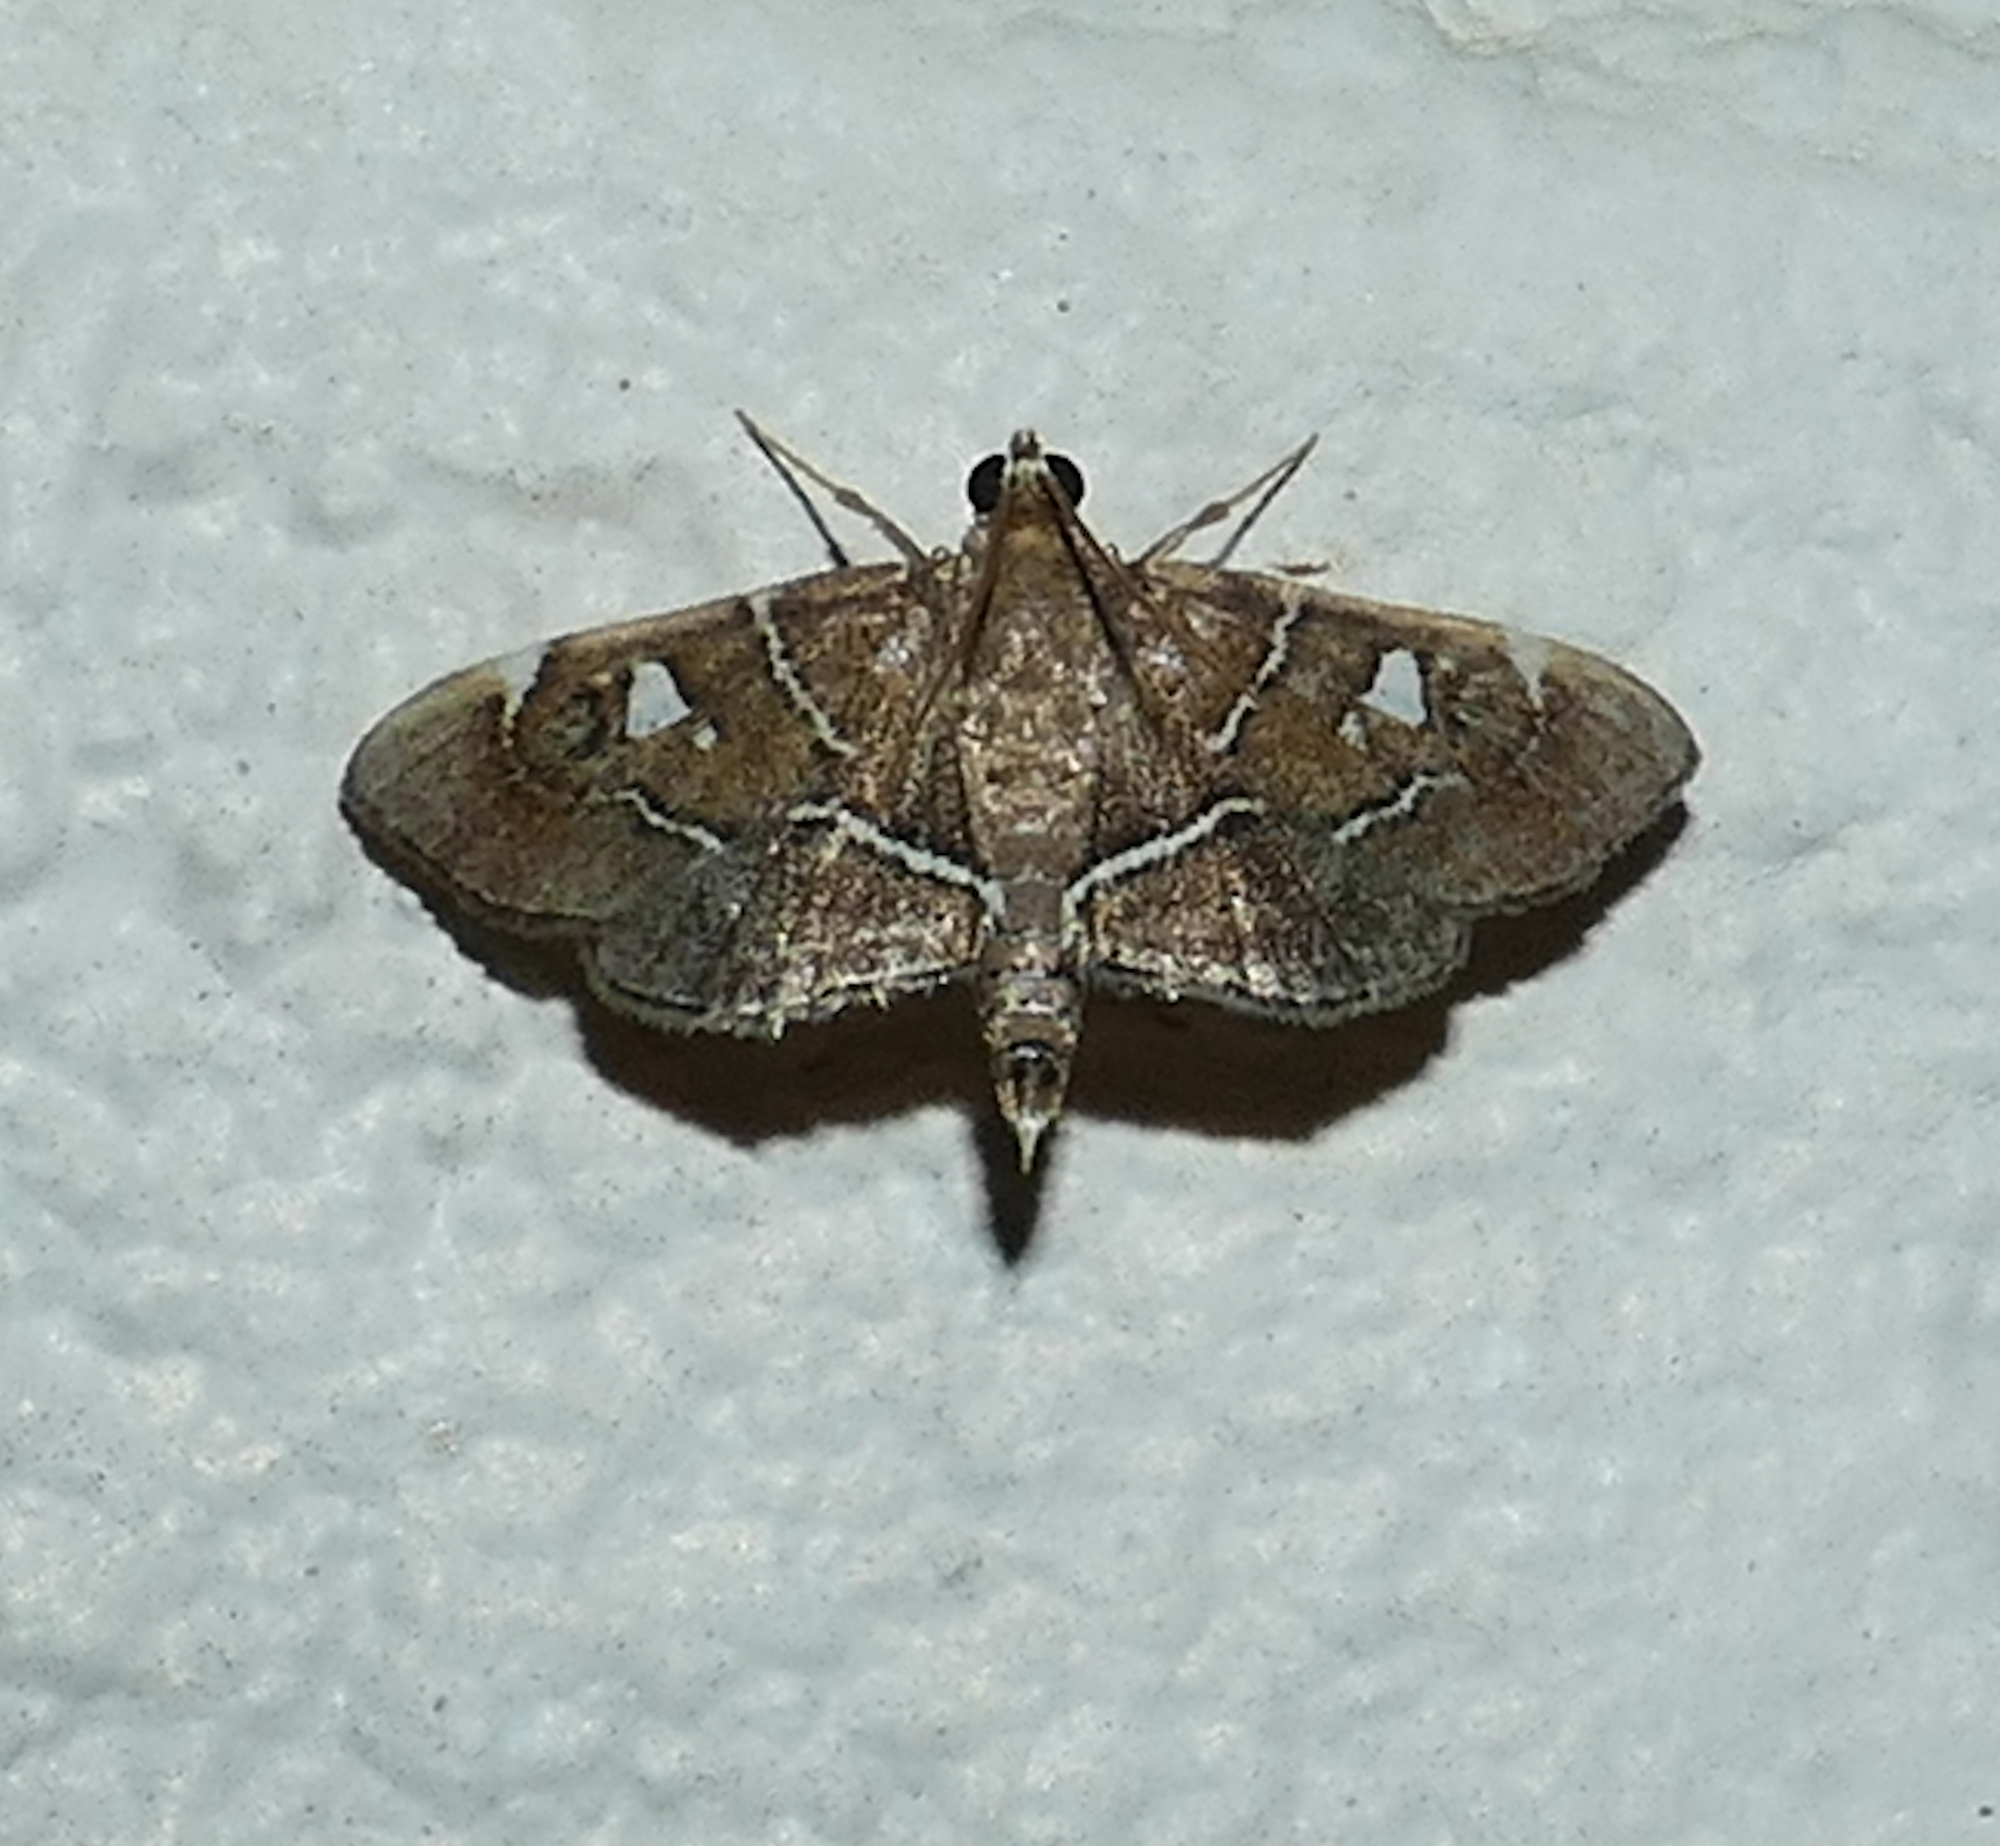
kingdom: Animalia
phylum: Arthropoda
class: Insecta
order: Lepidoptera
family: Crambidae
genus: Lamprosema
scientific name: Lamprosema victoriae
